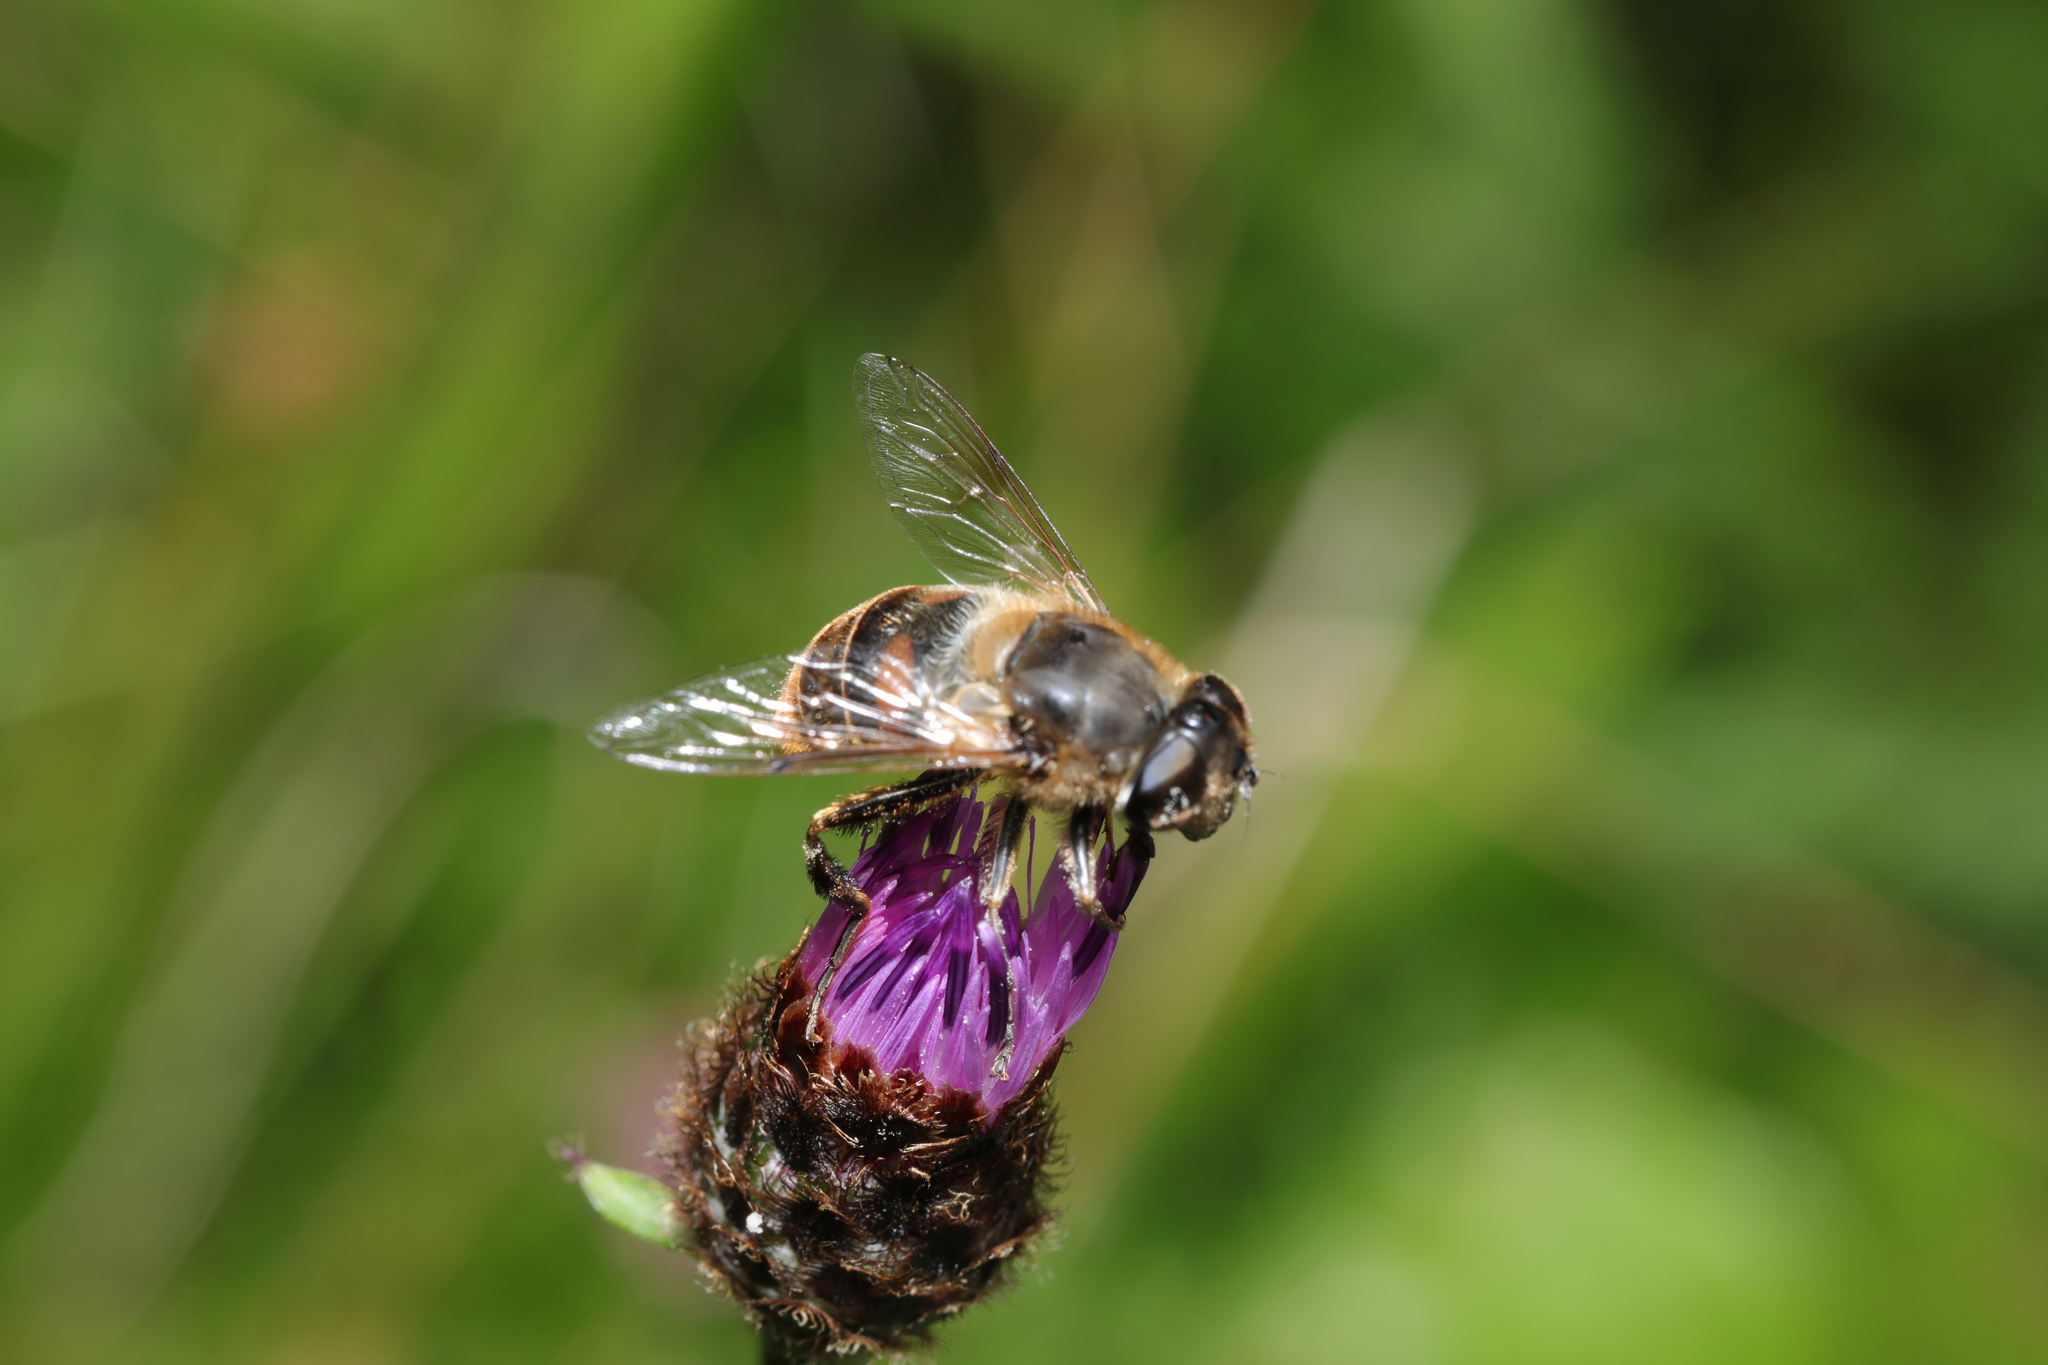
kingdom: Animalia
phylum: Arthropoda
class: Insecta
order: Diptera
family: Syrphidae
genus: Eristalis
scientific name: Eristalis tenax
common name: Drone fly
